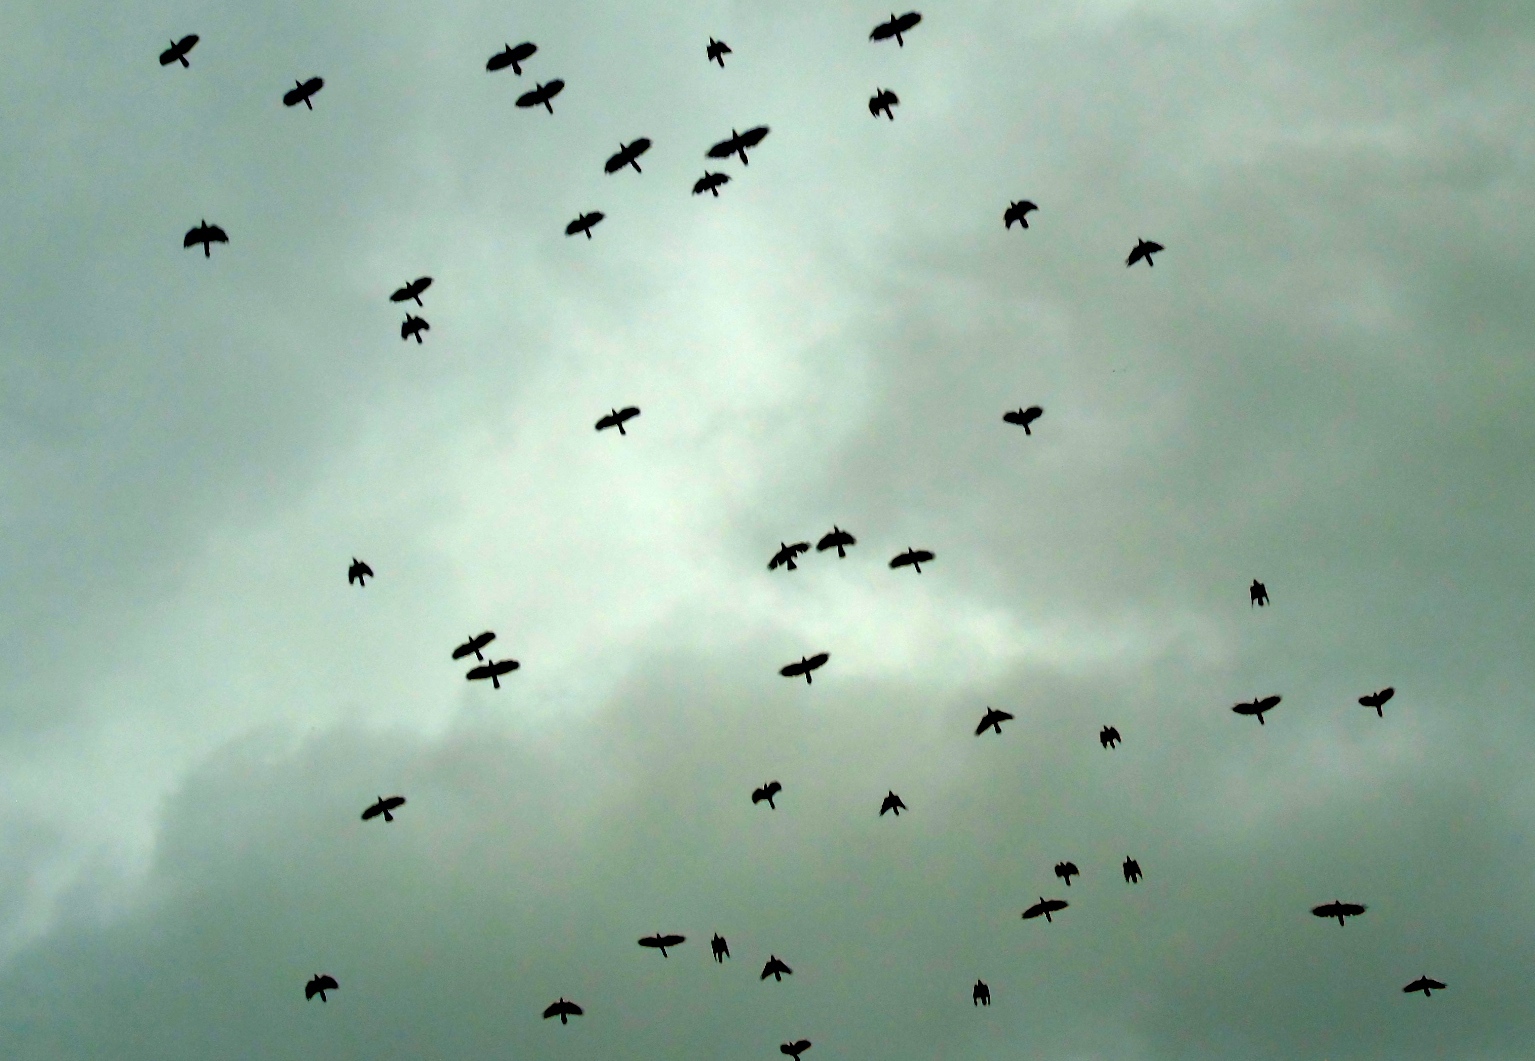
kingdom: Animalia
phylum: Chordata
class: Aves
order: Passeriformes
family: Corvidae
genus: Corvus
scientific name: Corvus sinaloae
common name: Sinaloa crow
